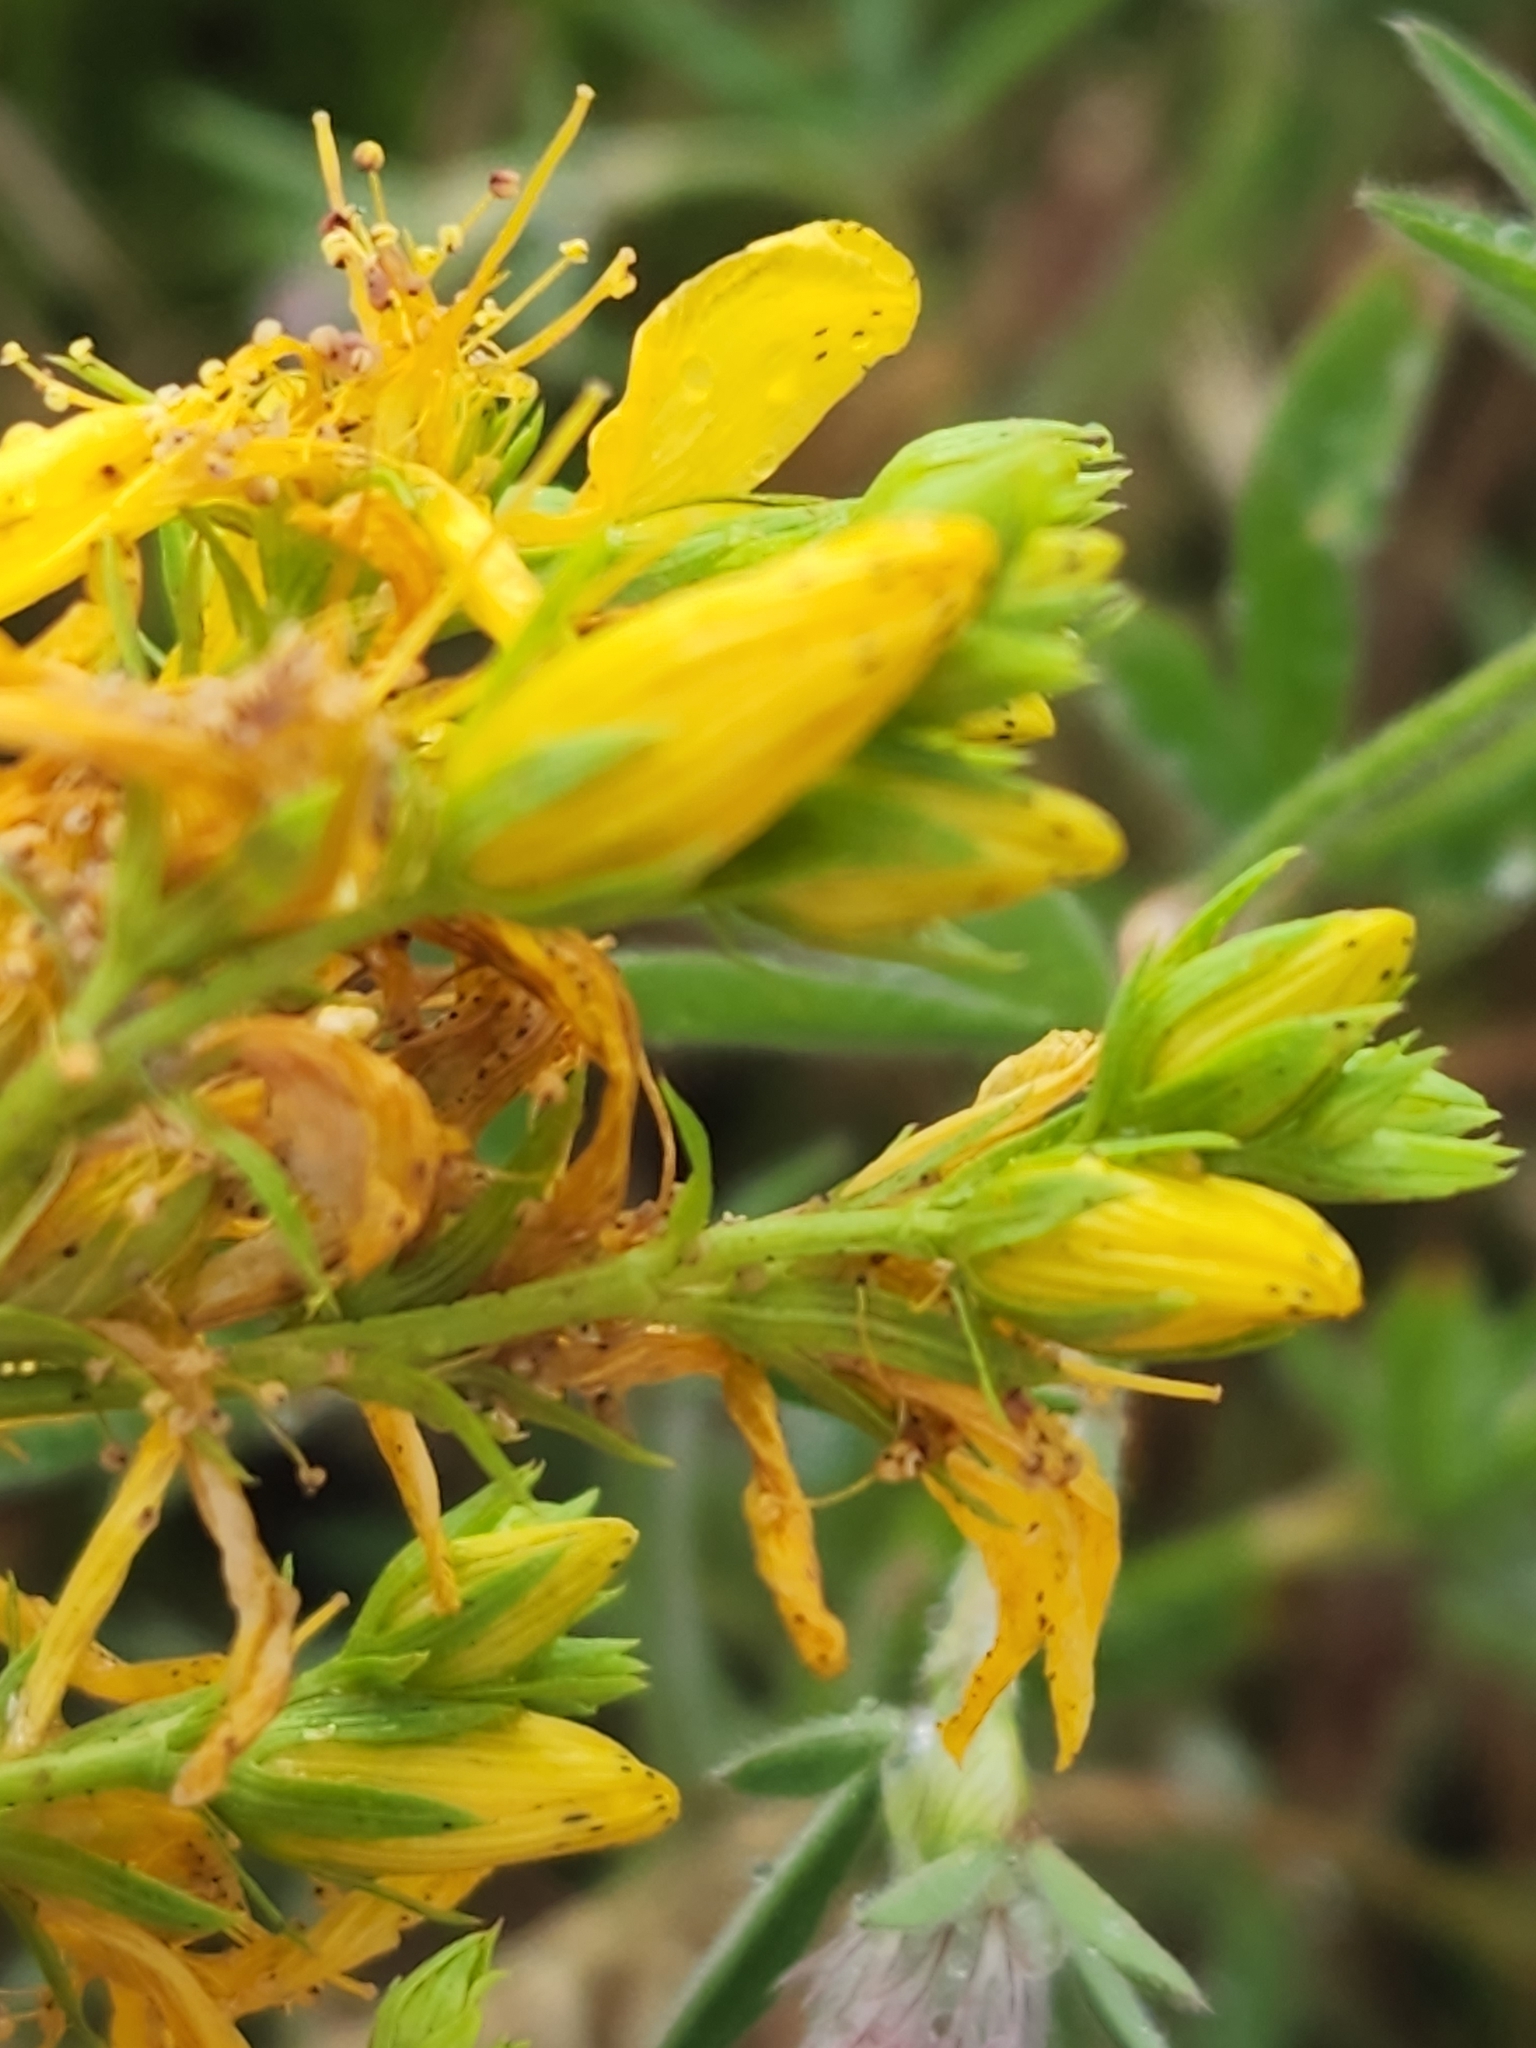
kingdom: Plantae
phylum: Tracheophyta
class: Magnoliopsida
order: Malpighiales
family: Hypericaceae
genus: Hypericum
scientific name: Hypericum perforatum
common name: Common st. johnswort
